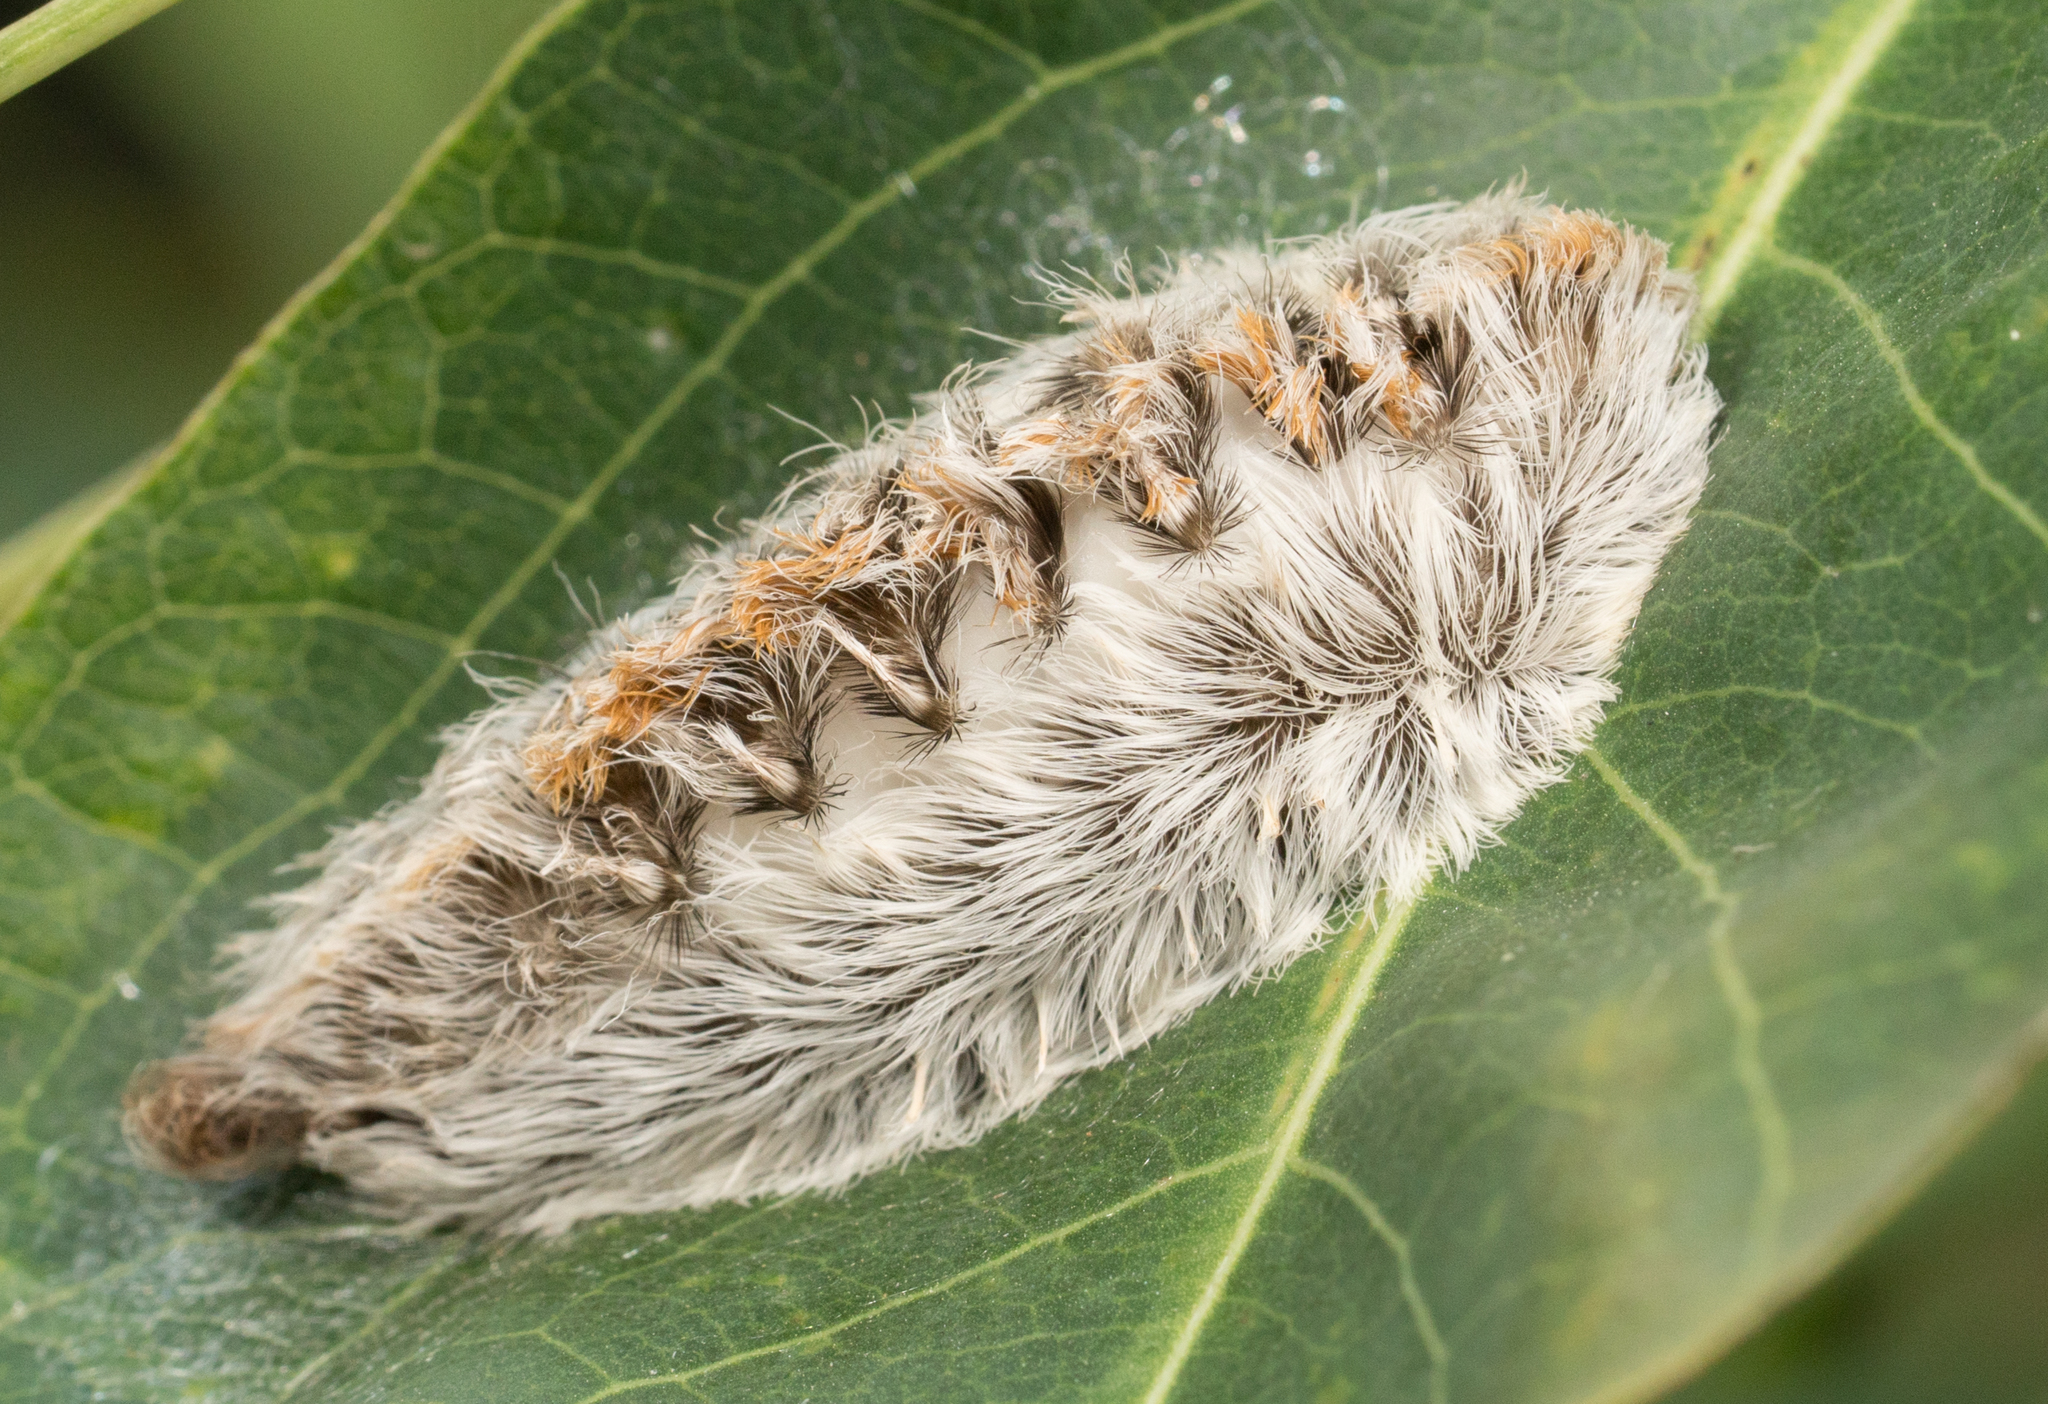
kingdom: Animalia
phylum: Arthropoda
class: Insecta
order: Lepidoptera
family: Megalopygidae
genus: Megalopyge
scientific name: Megalopyge opercularis
